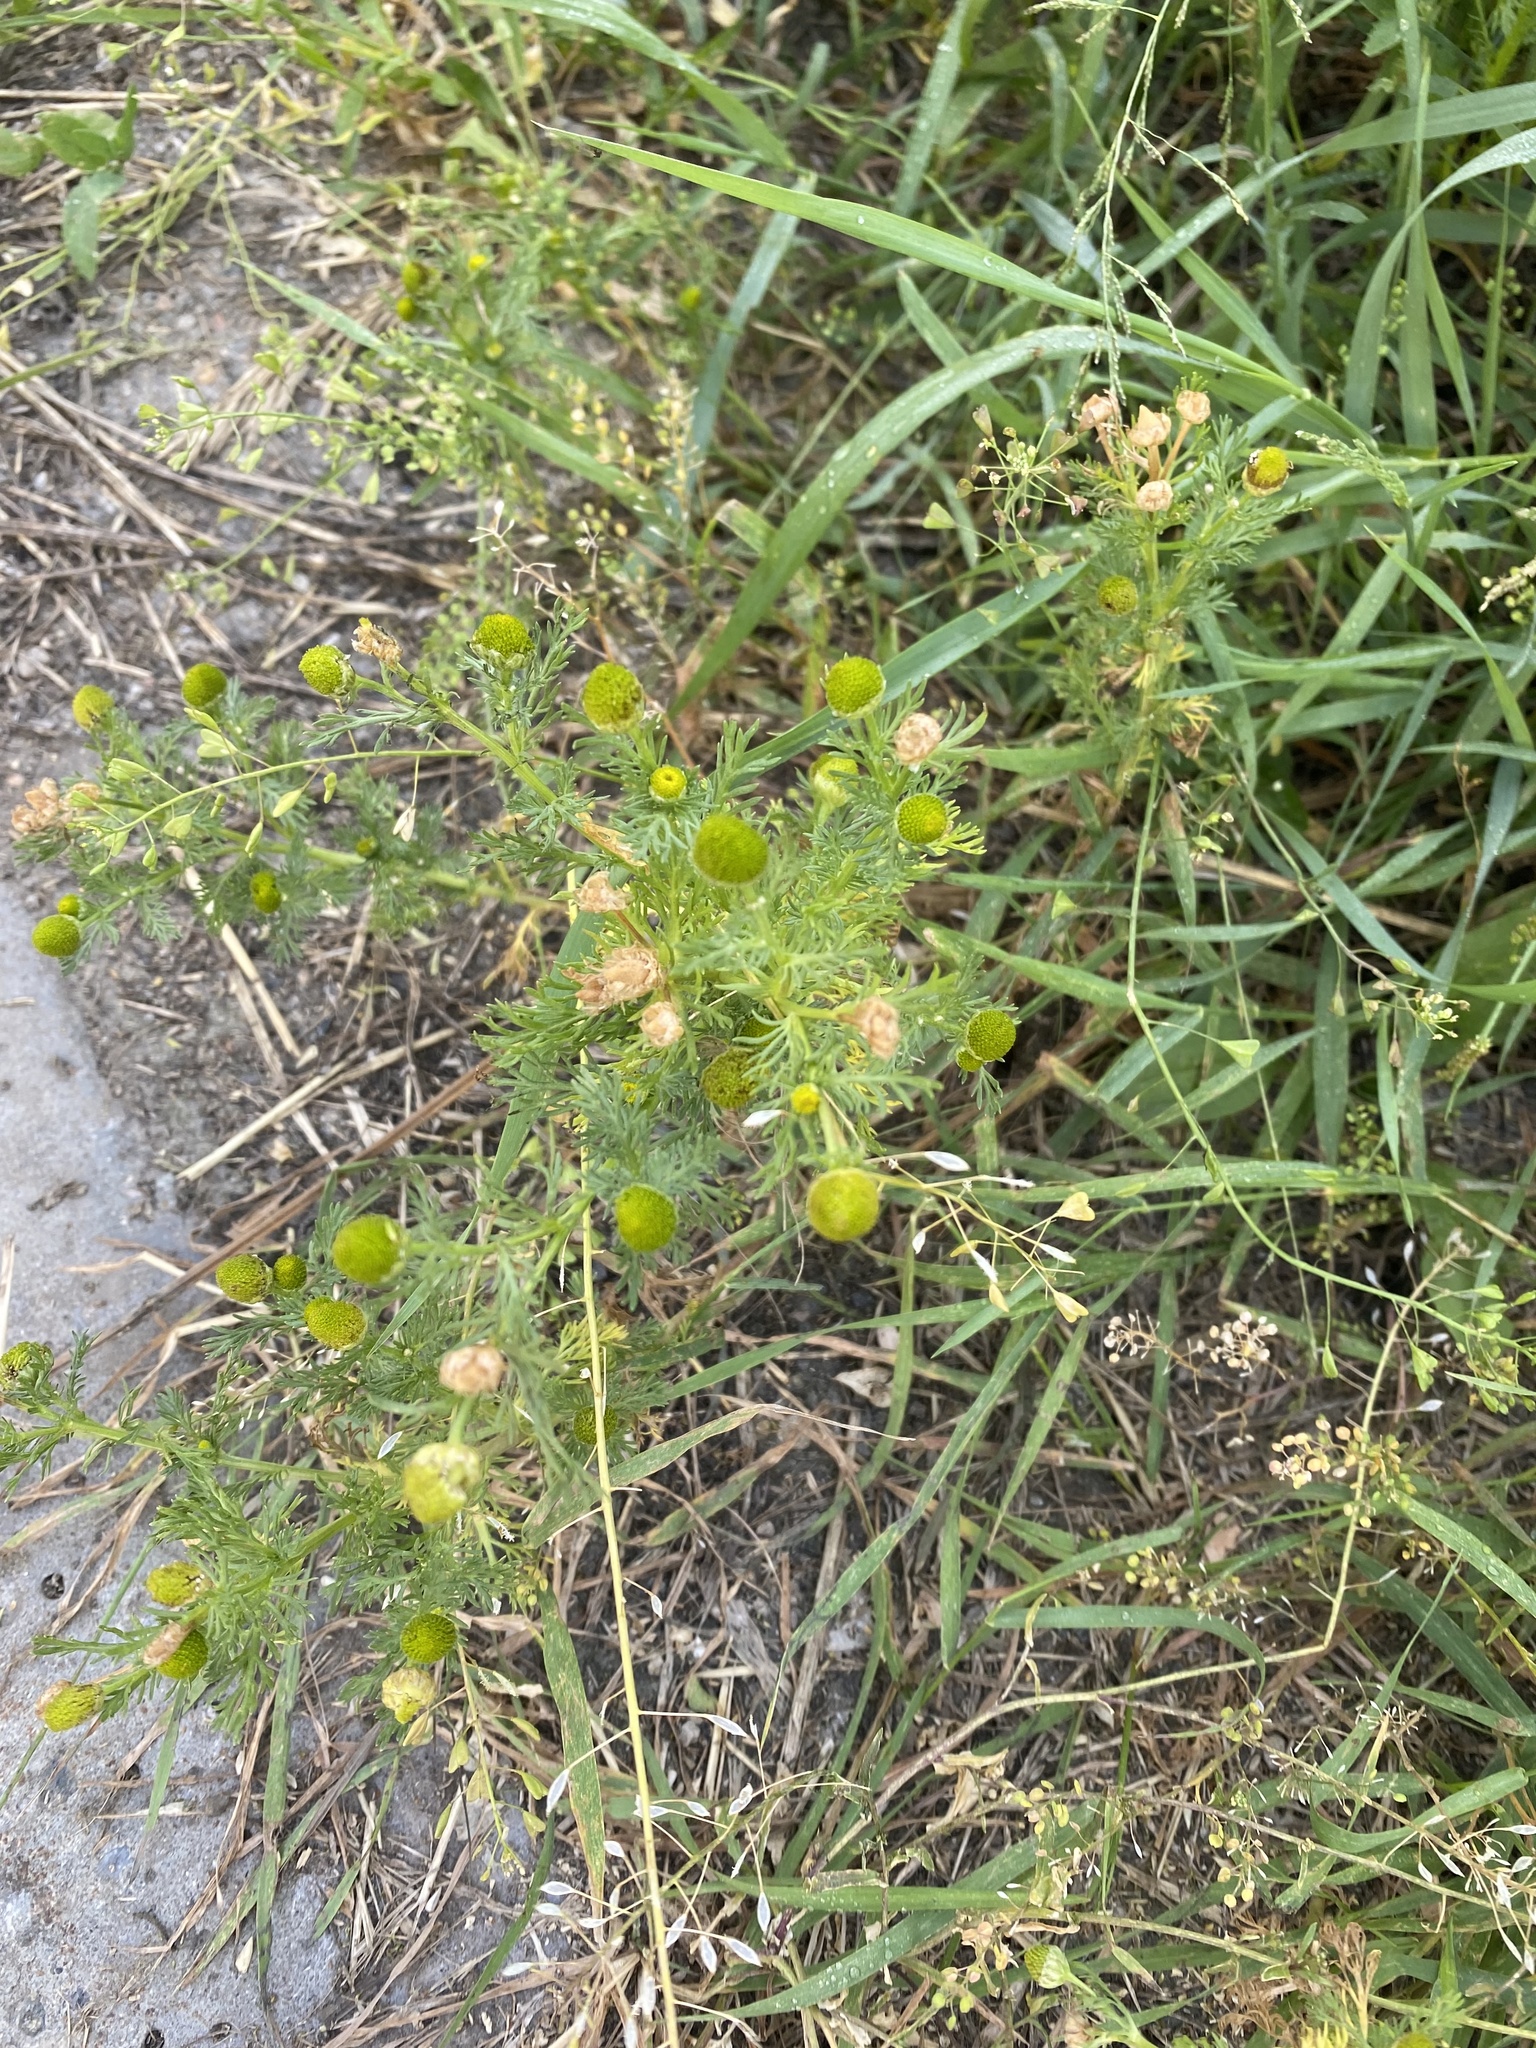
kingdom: Plantae
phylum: Tracheophyta
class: Magnoliopsida
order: Asterales
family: Asteraceae
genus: Matricaria
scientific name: Matricaria discoidea
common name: Disc mayweed
